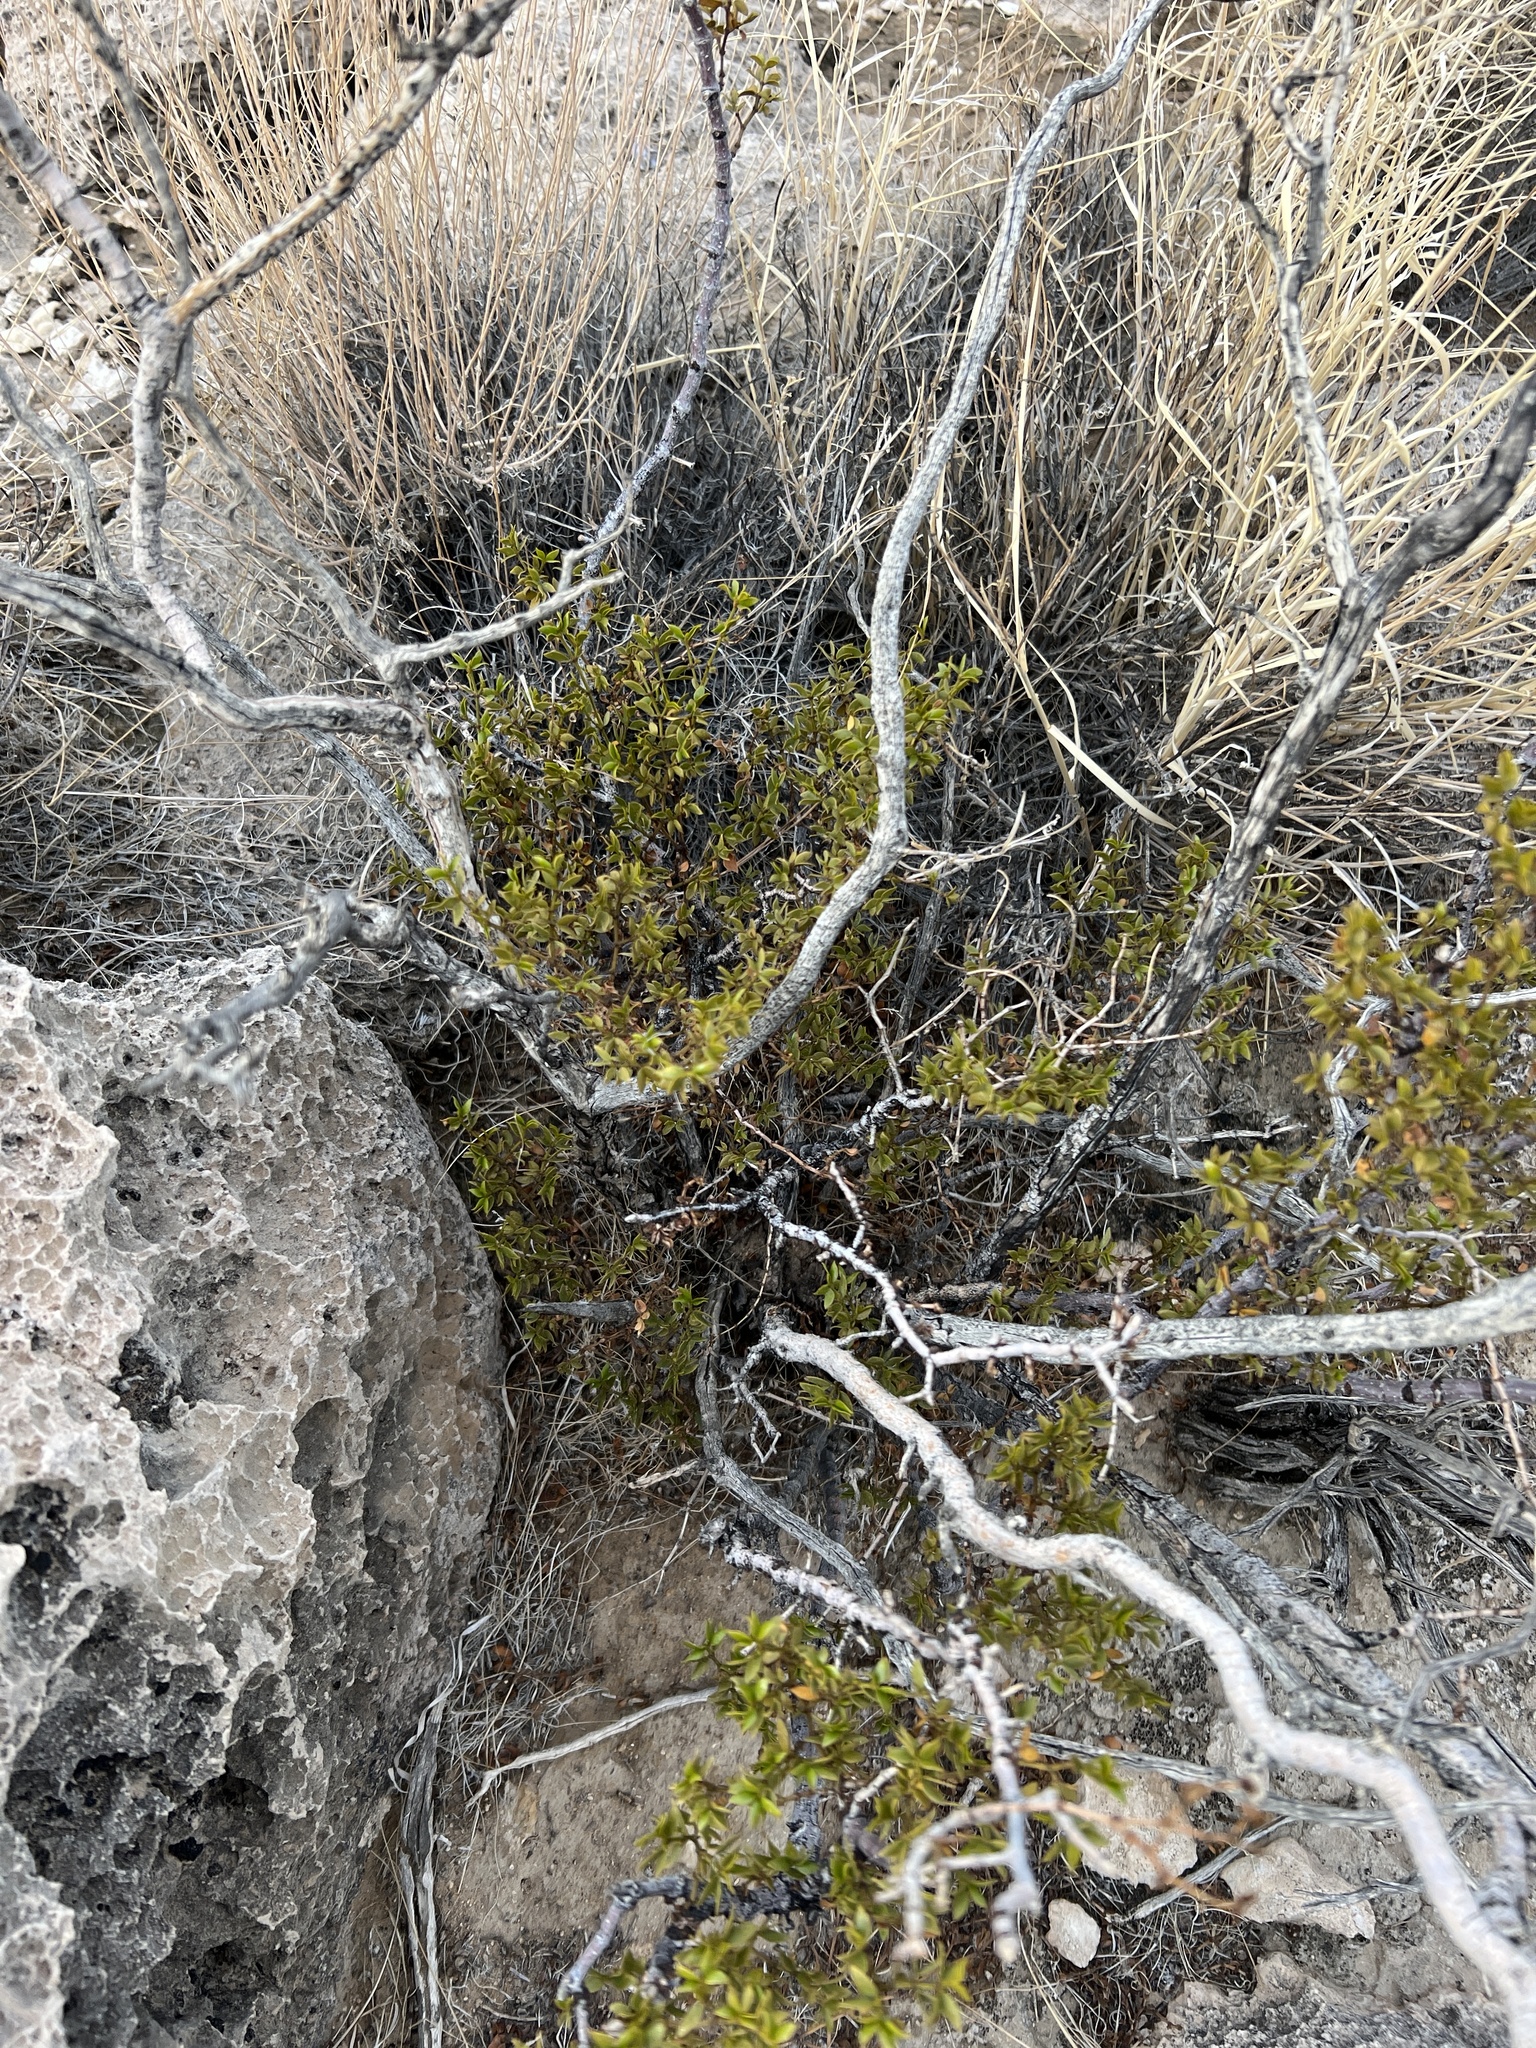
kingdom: Plantae
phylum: Tracheophyta
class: Magnoliopsida
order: Zygophyllales
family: Zygophyllaceae
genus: Larrea
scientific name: Larrea tridentata
